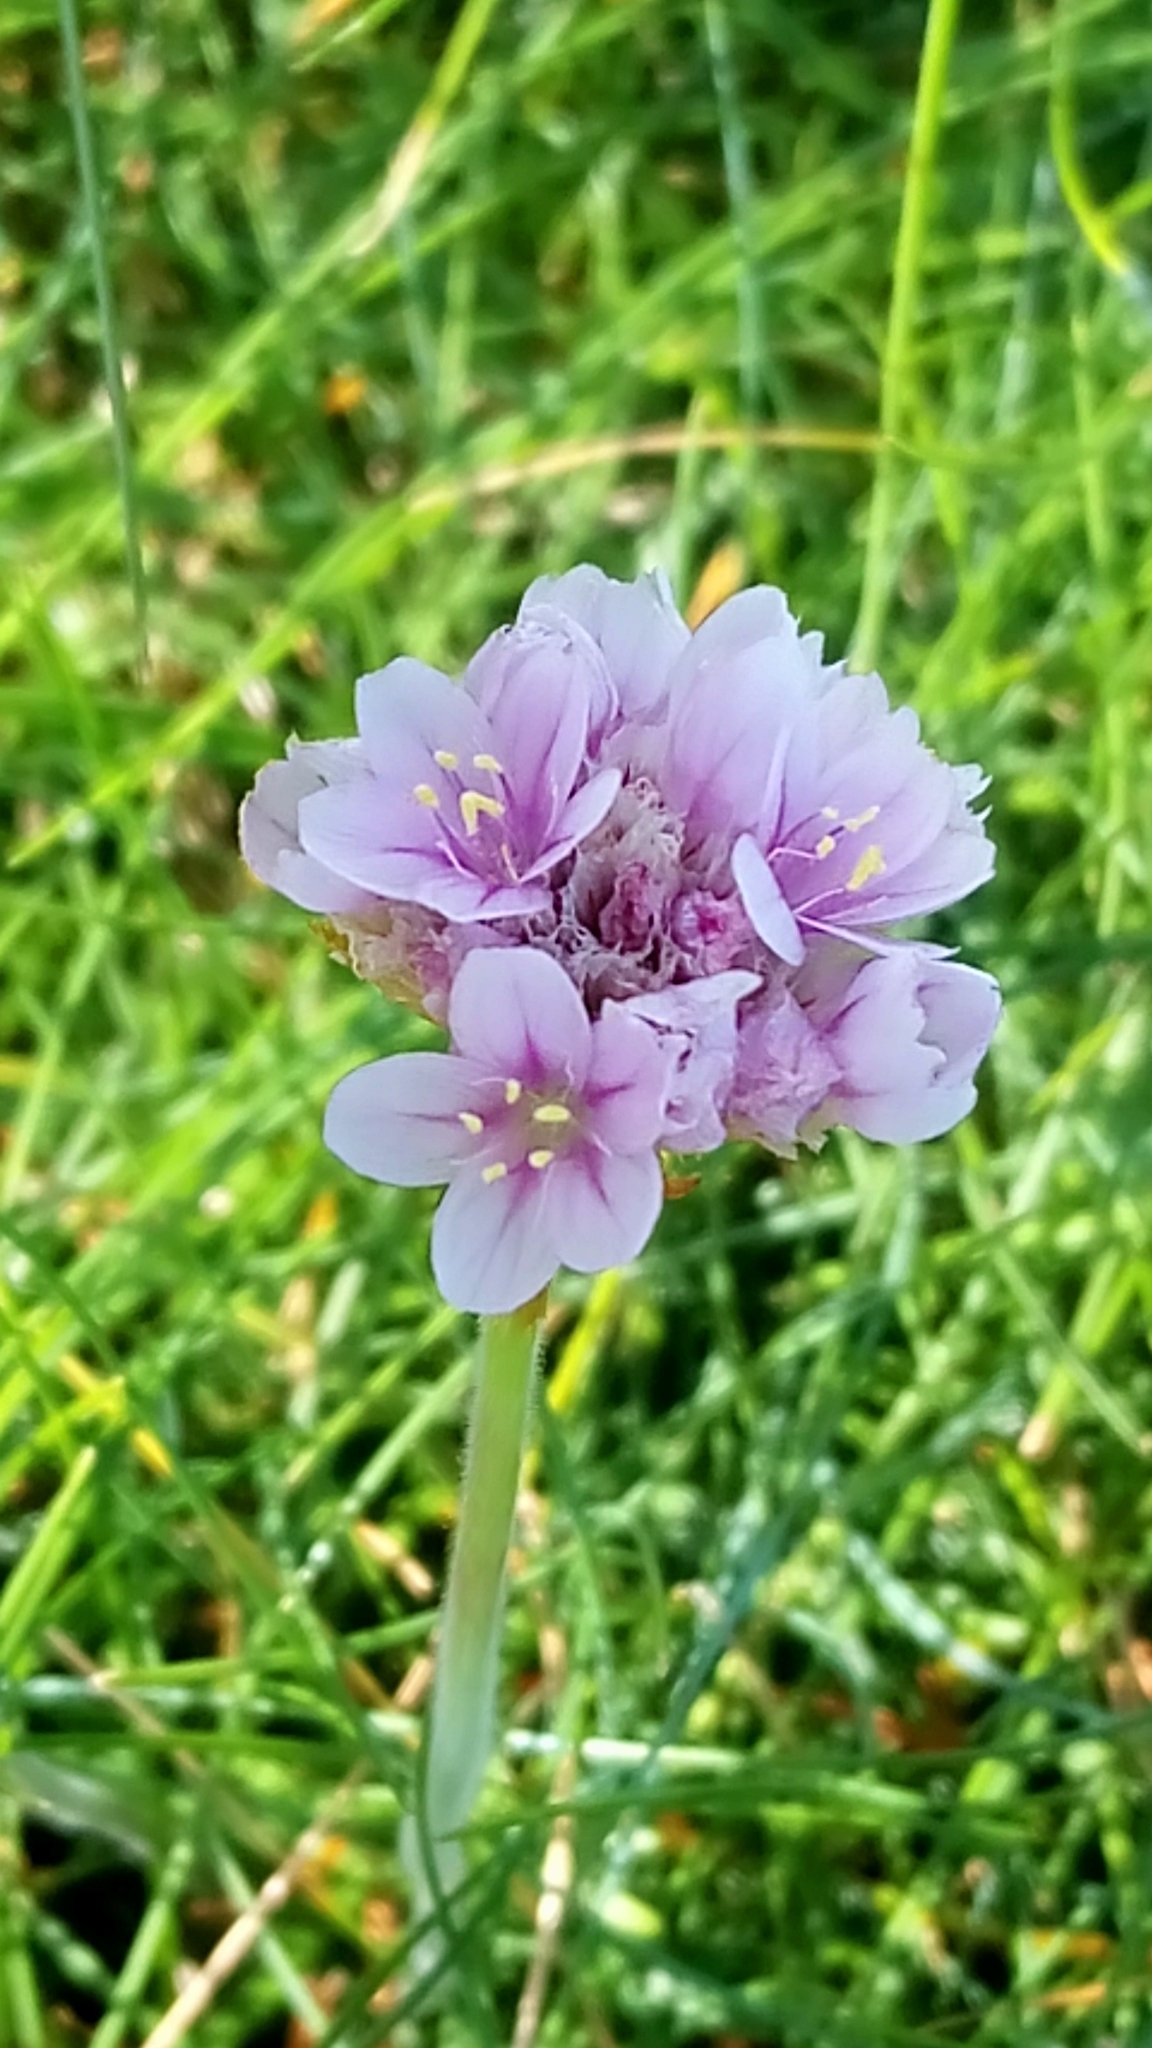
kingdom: Plantae
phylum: Tracheophyta
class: Magnoliopsida
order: Caryophyllales
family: Plumbaginaceae
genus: Armeria
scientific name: Armeria maritima
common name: Thrift
